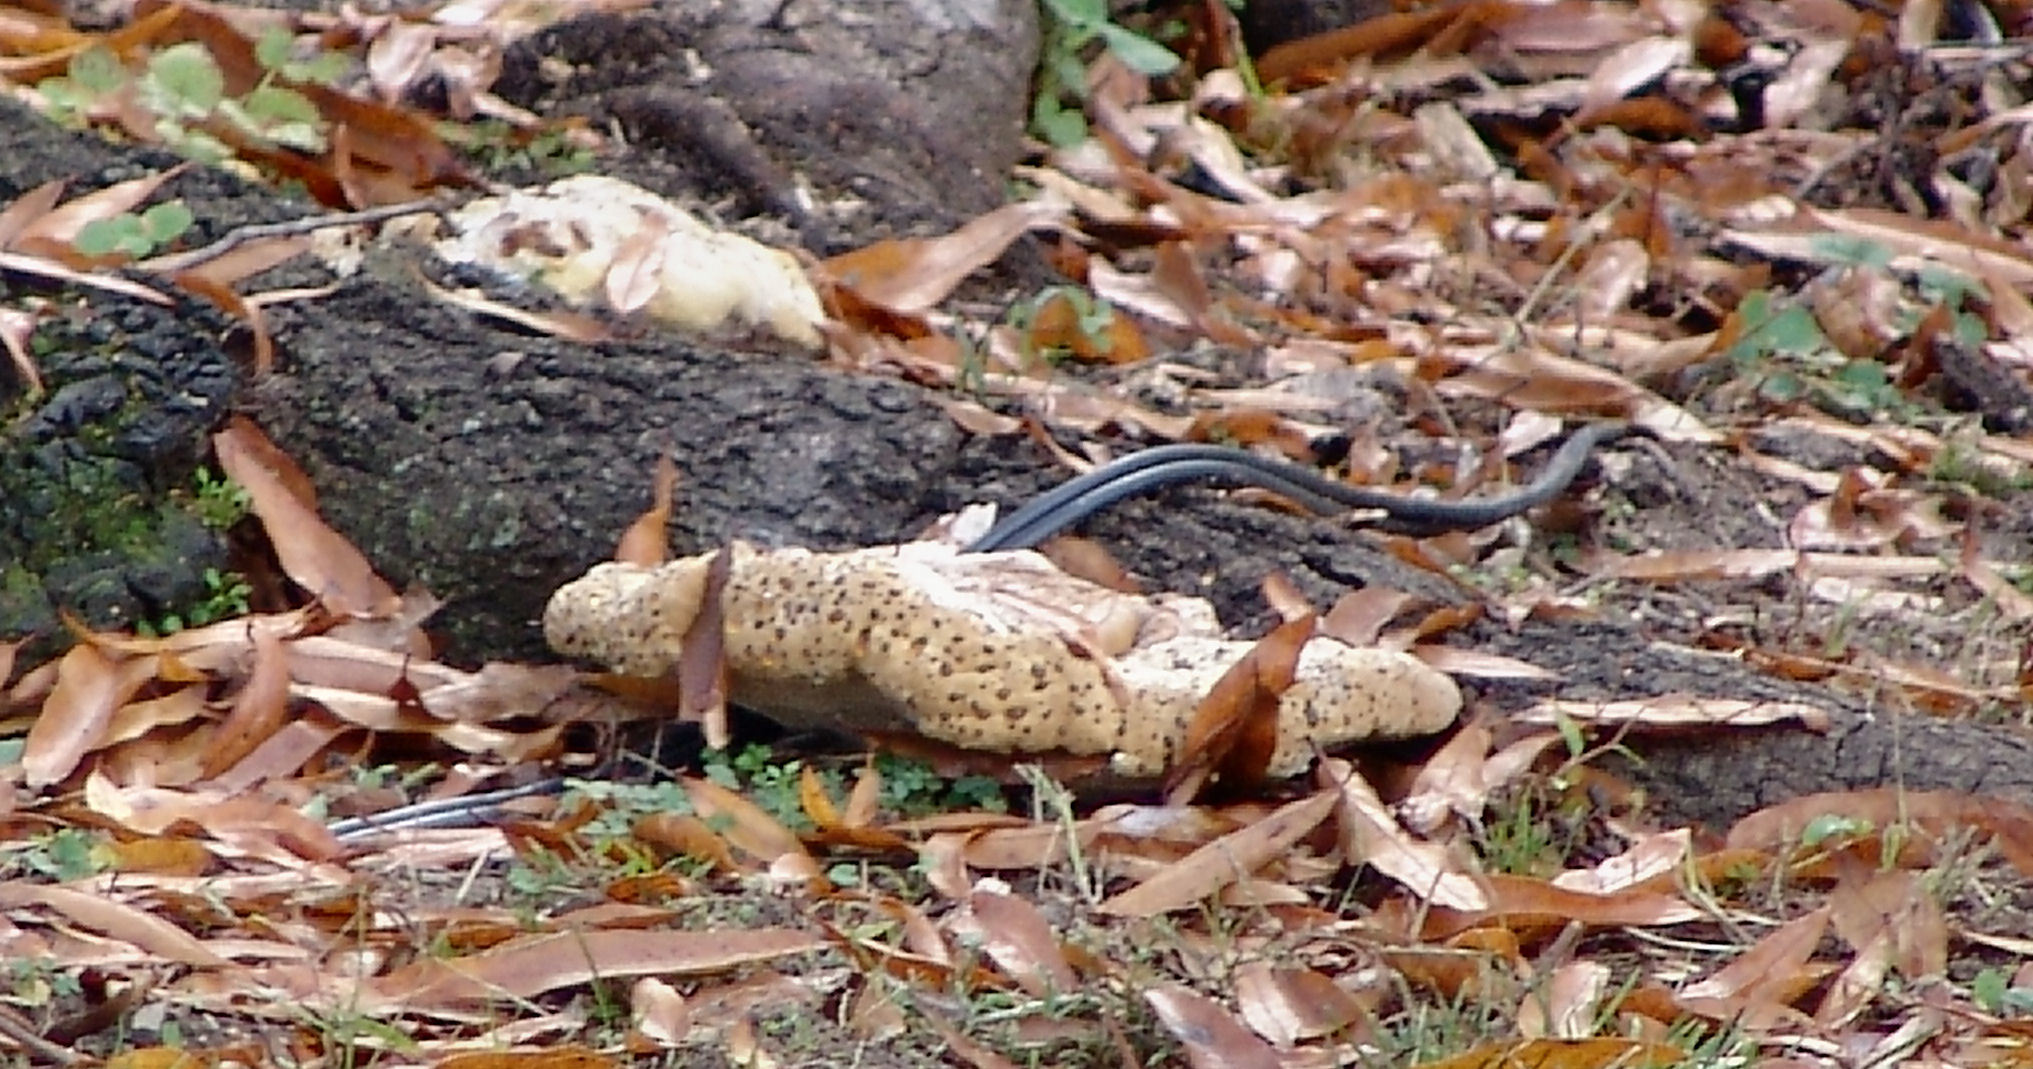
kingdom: Fungi
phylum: Basidiomycota
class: Agaricomycetes
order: Hymenochaetales
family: Hymenochaetaceae
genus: Pseudoinonotus
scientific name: Pseudoinonotus dryadeus
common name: Oak bracket
